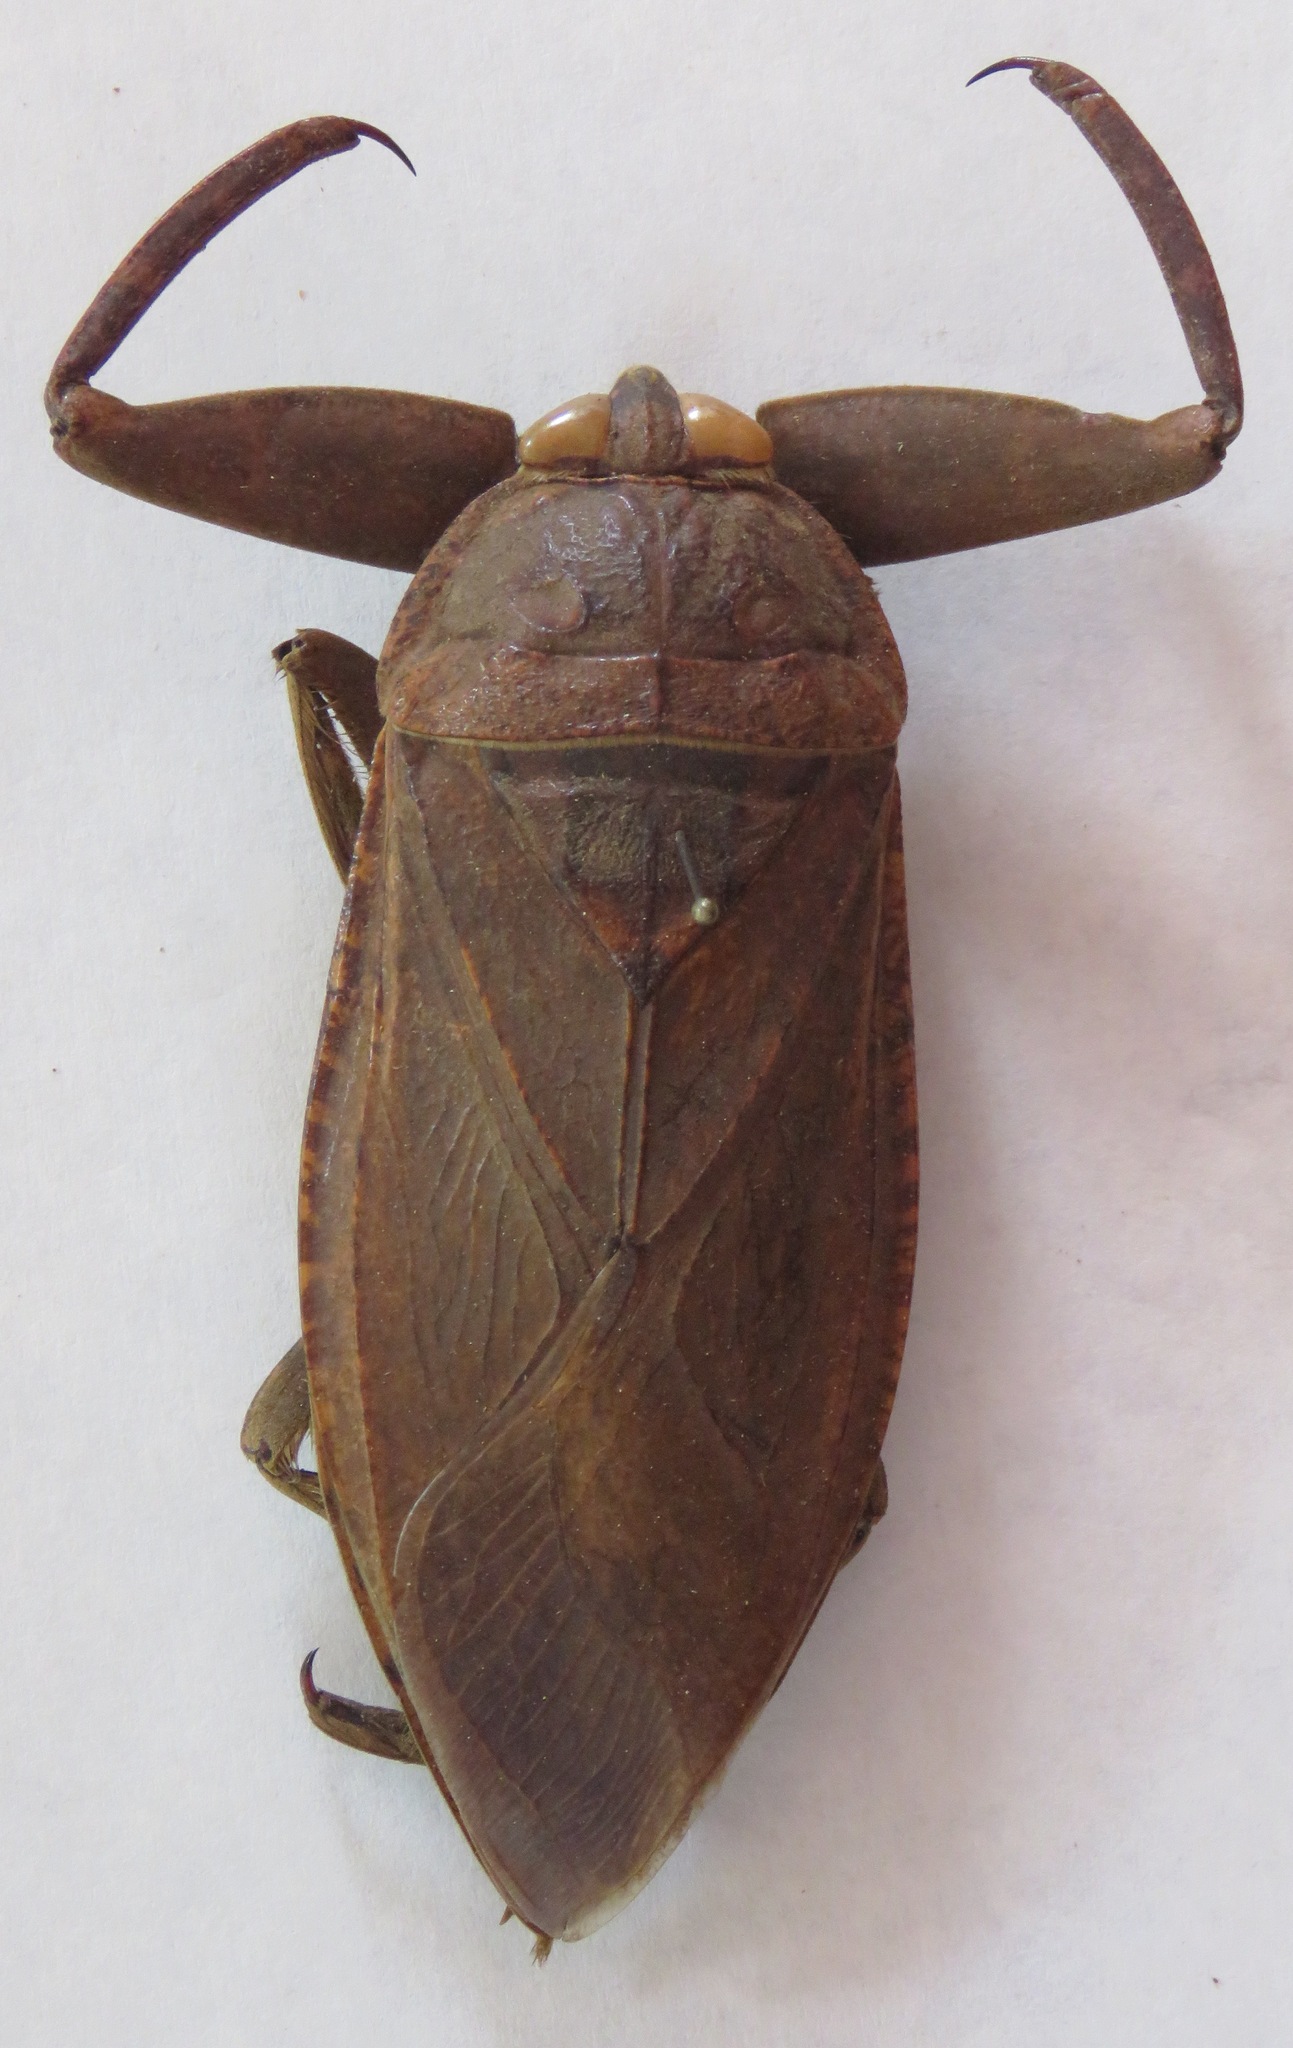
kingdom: Animalia
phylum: Arthropoda
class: Insecta
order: Hemiptera
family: Belostomatidae
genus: Lethocerus
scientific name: Lethocerus collossicus
